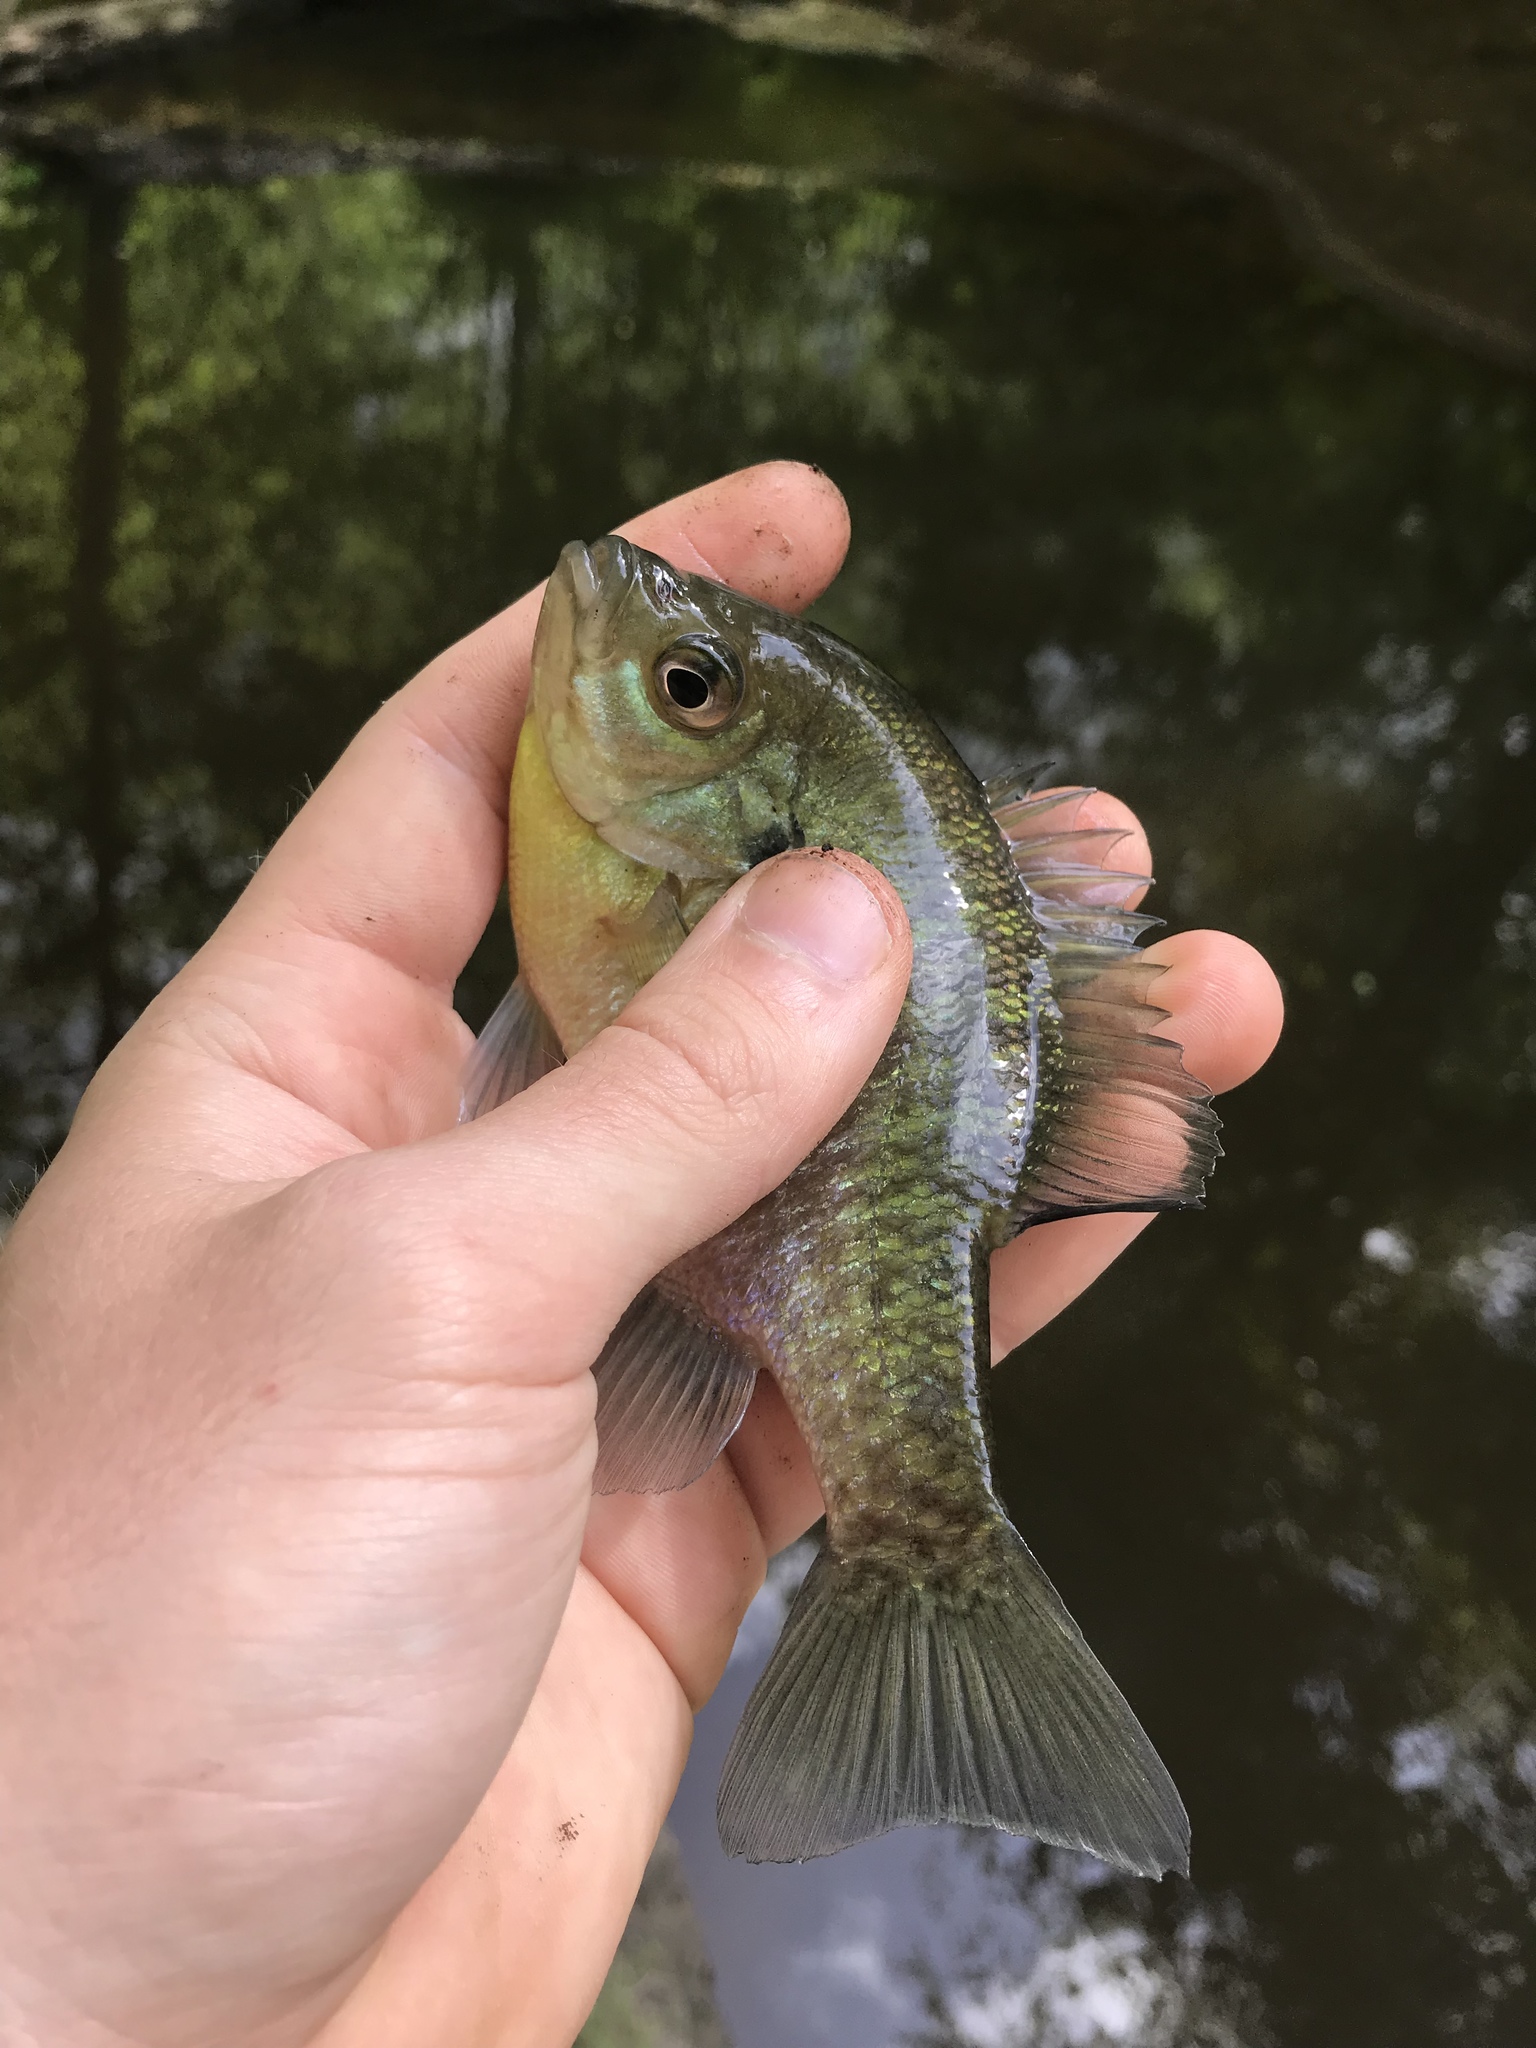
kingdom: Animalia
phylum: Chordata
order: Perciformes
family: Centrarchidae
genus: Lepomis
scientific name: Lepomis macrochirus
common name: Bluegill
